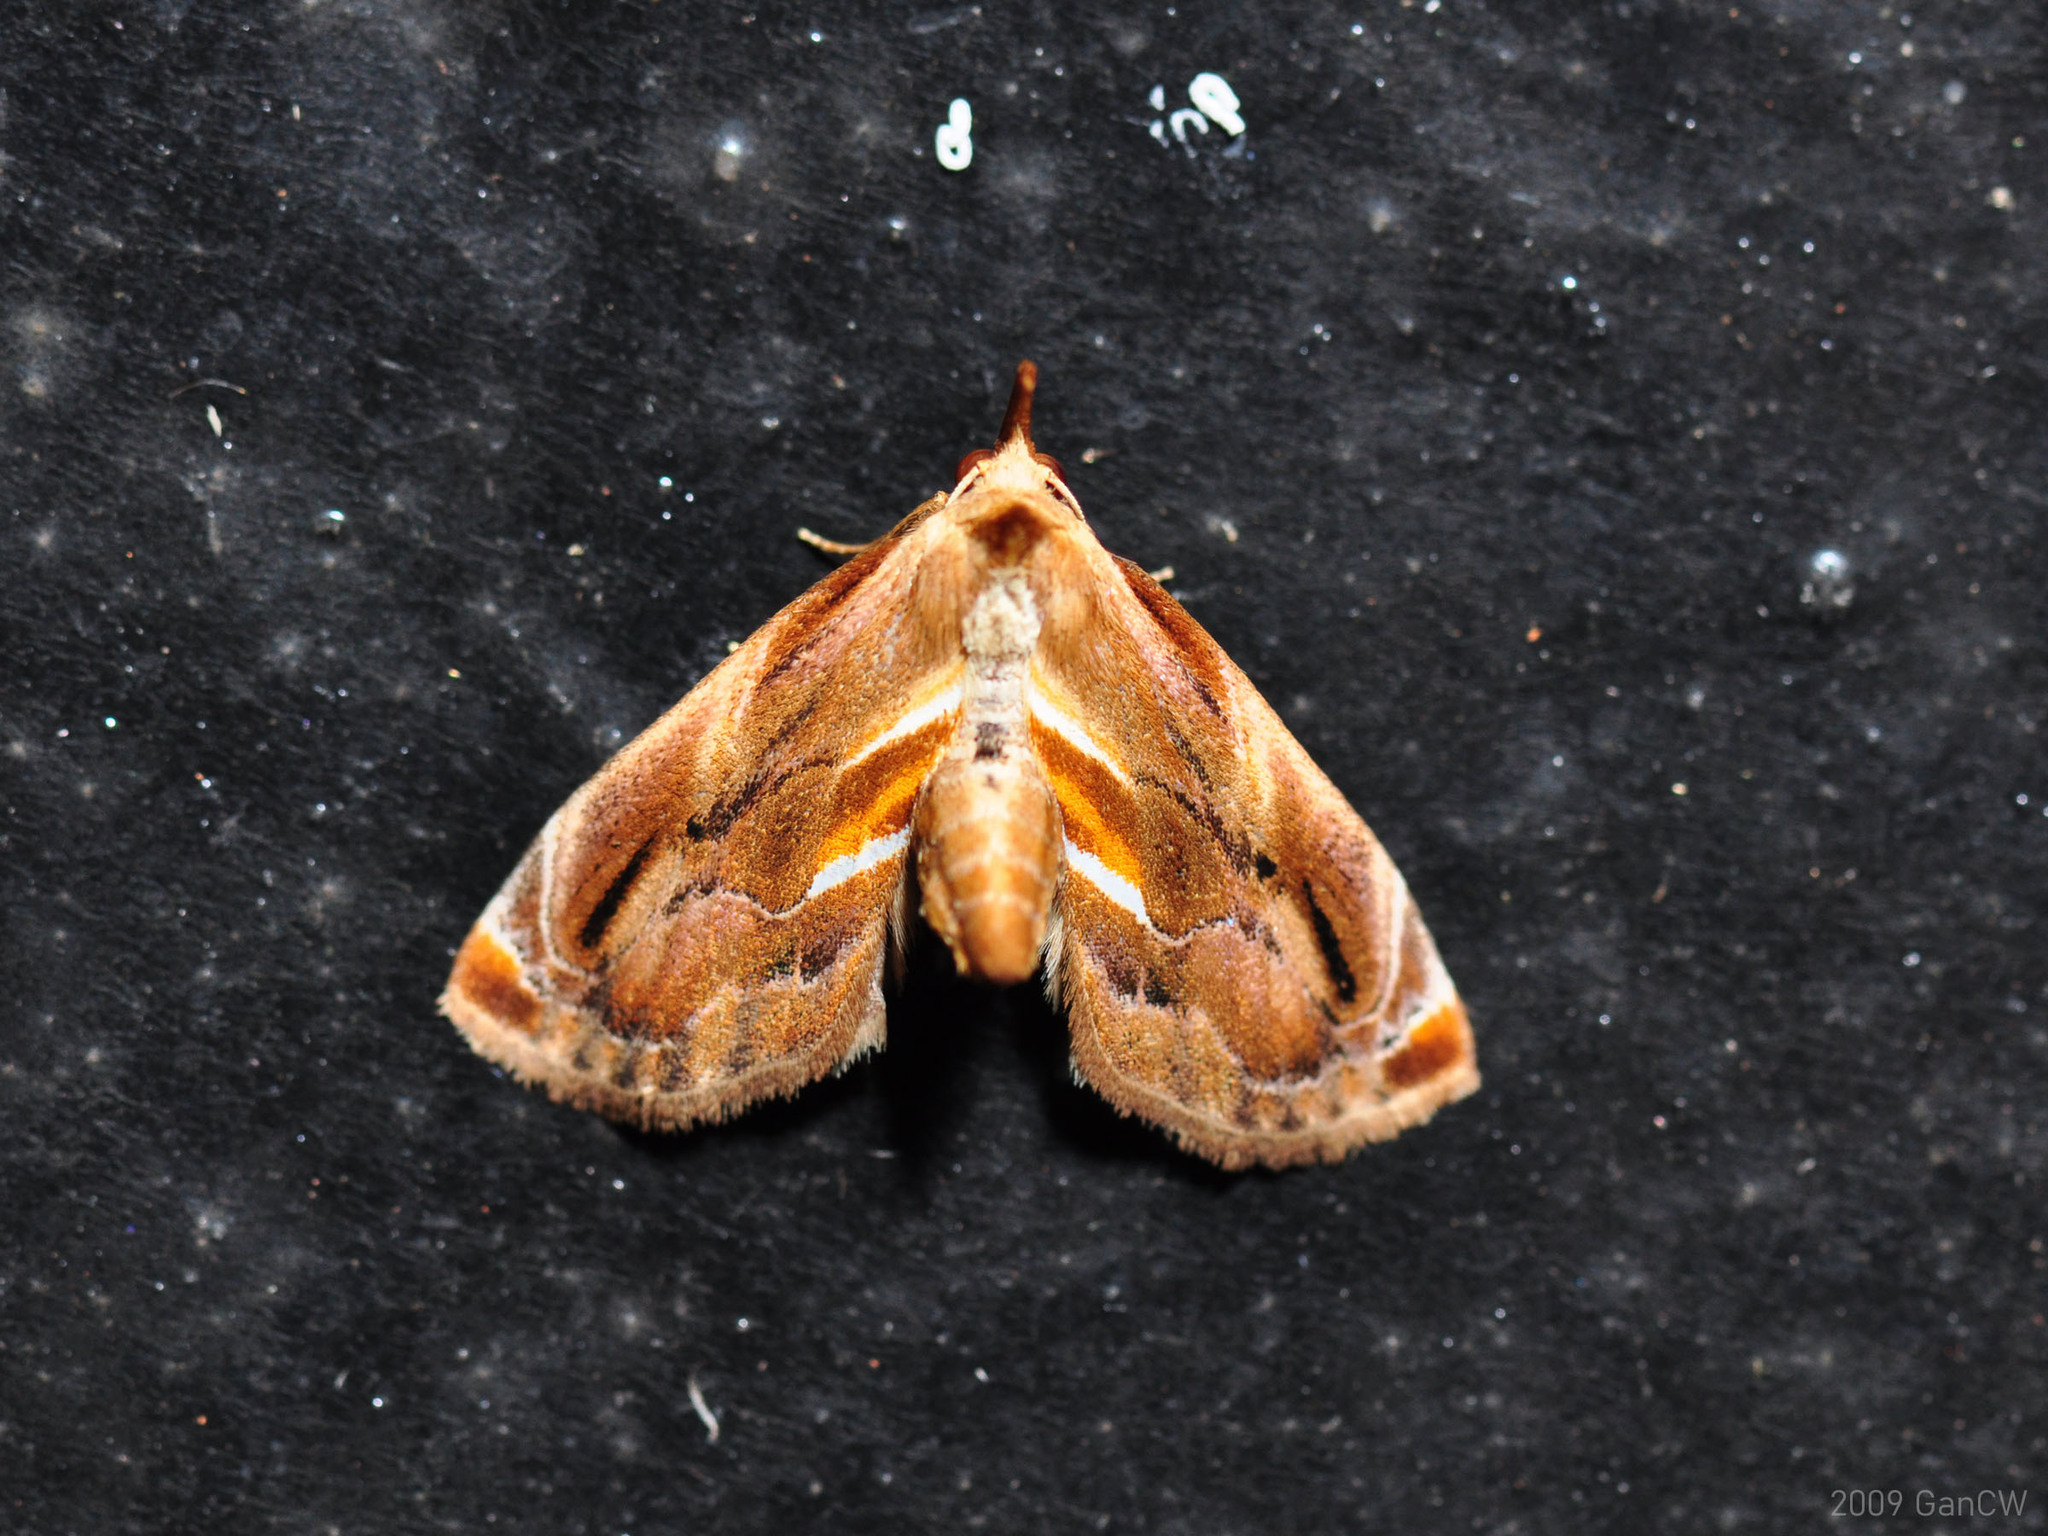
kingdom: Animalia
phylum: Arthropoda
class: Insecta
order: Lepidoptera
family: Noctuidae
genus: Lophomilia
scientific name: Lophomilia takao
